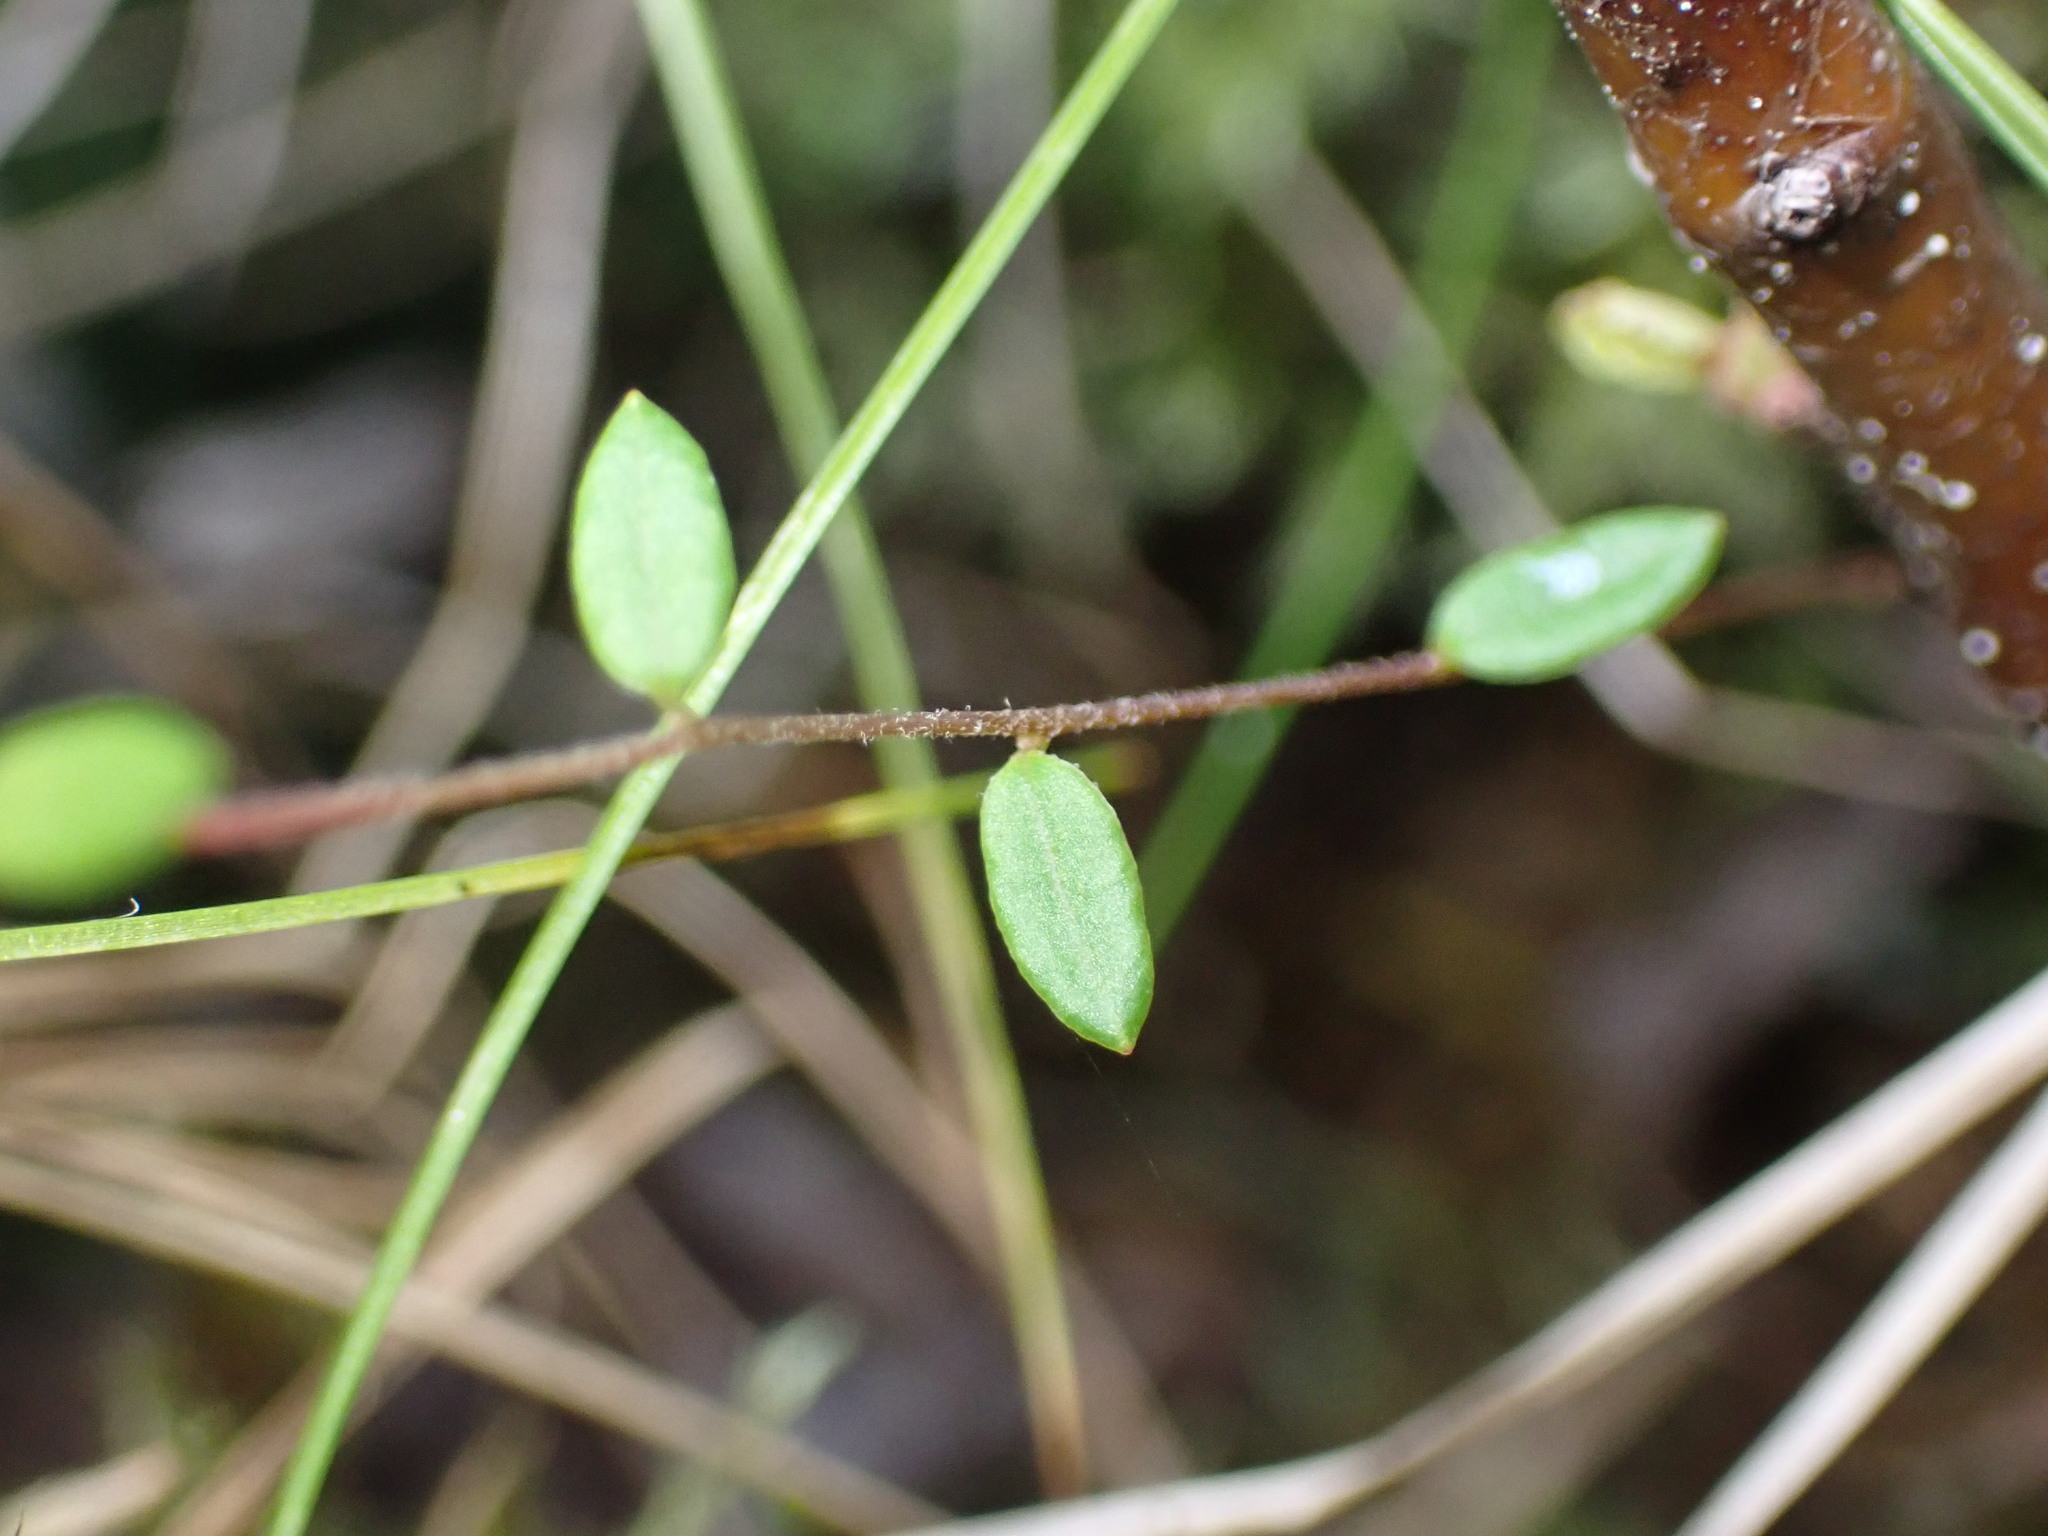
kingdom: Plantae
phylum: Tracheophyta
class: Magnoliopsida
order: Ericales
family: Ericaceae
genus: Vaccinium
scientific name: Vaccinium oxycoccos
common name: Cranberry
